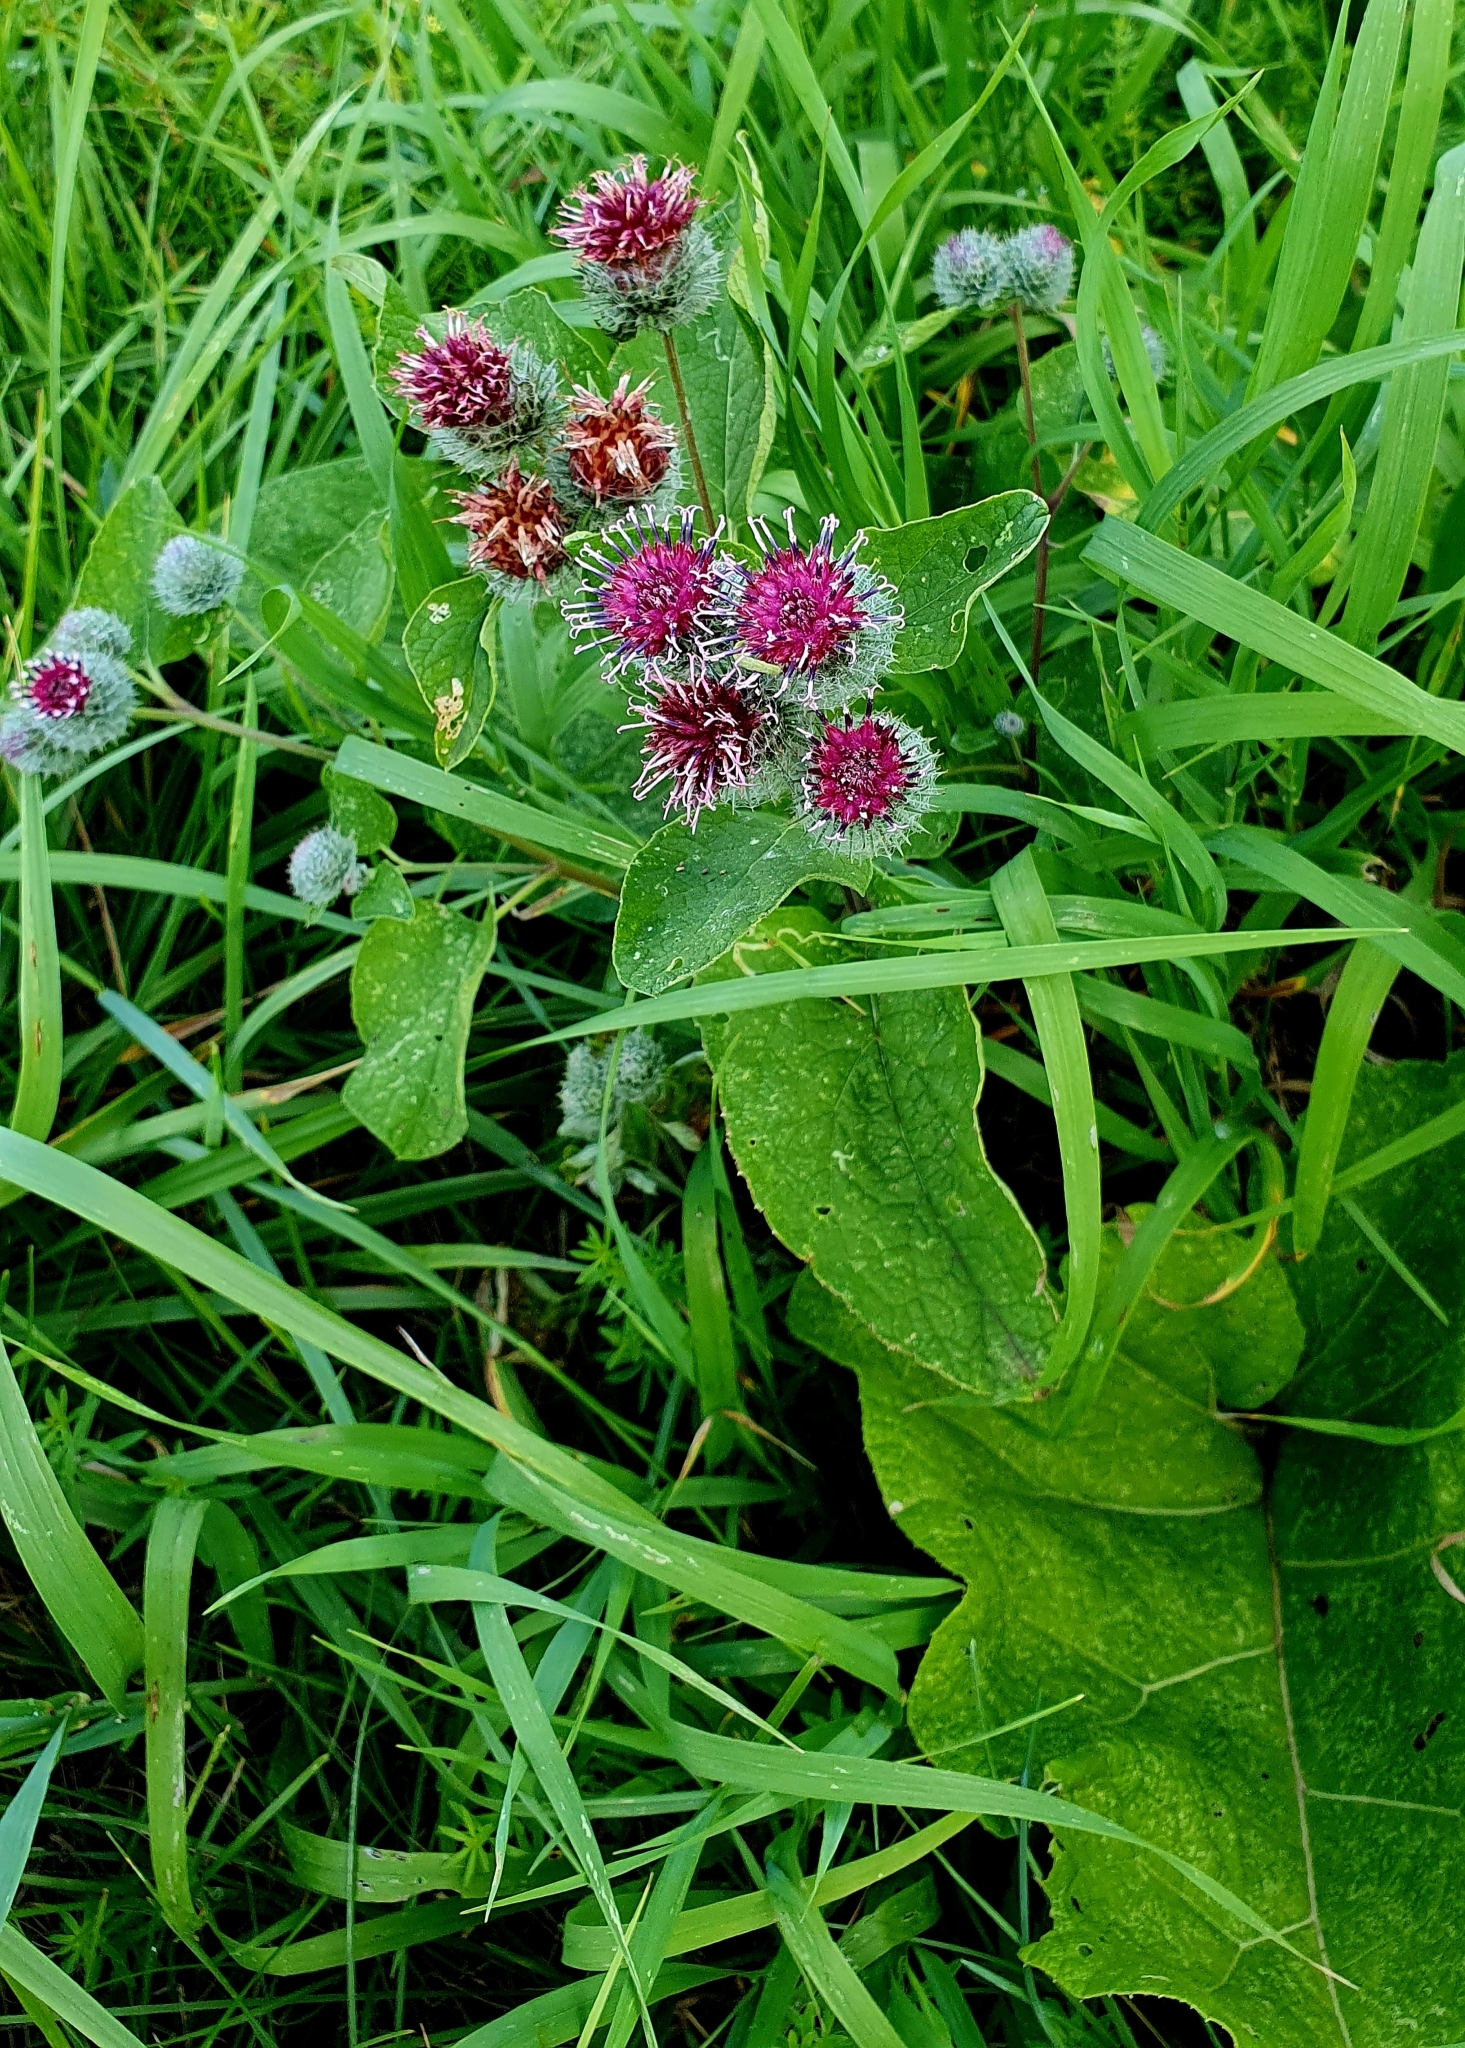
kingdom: Plantae
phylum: Tracheophyta
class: Magnoliopsida
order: Asterales
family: Asteraceae
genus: Arctium
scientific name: Arctium tomentosum
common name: Woolly burdock
